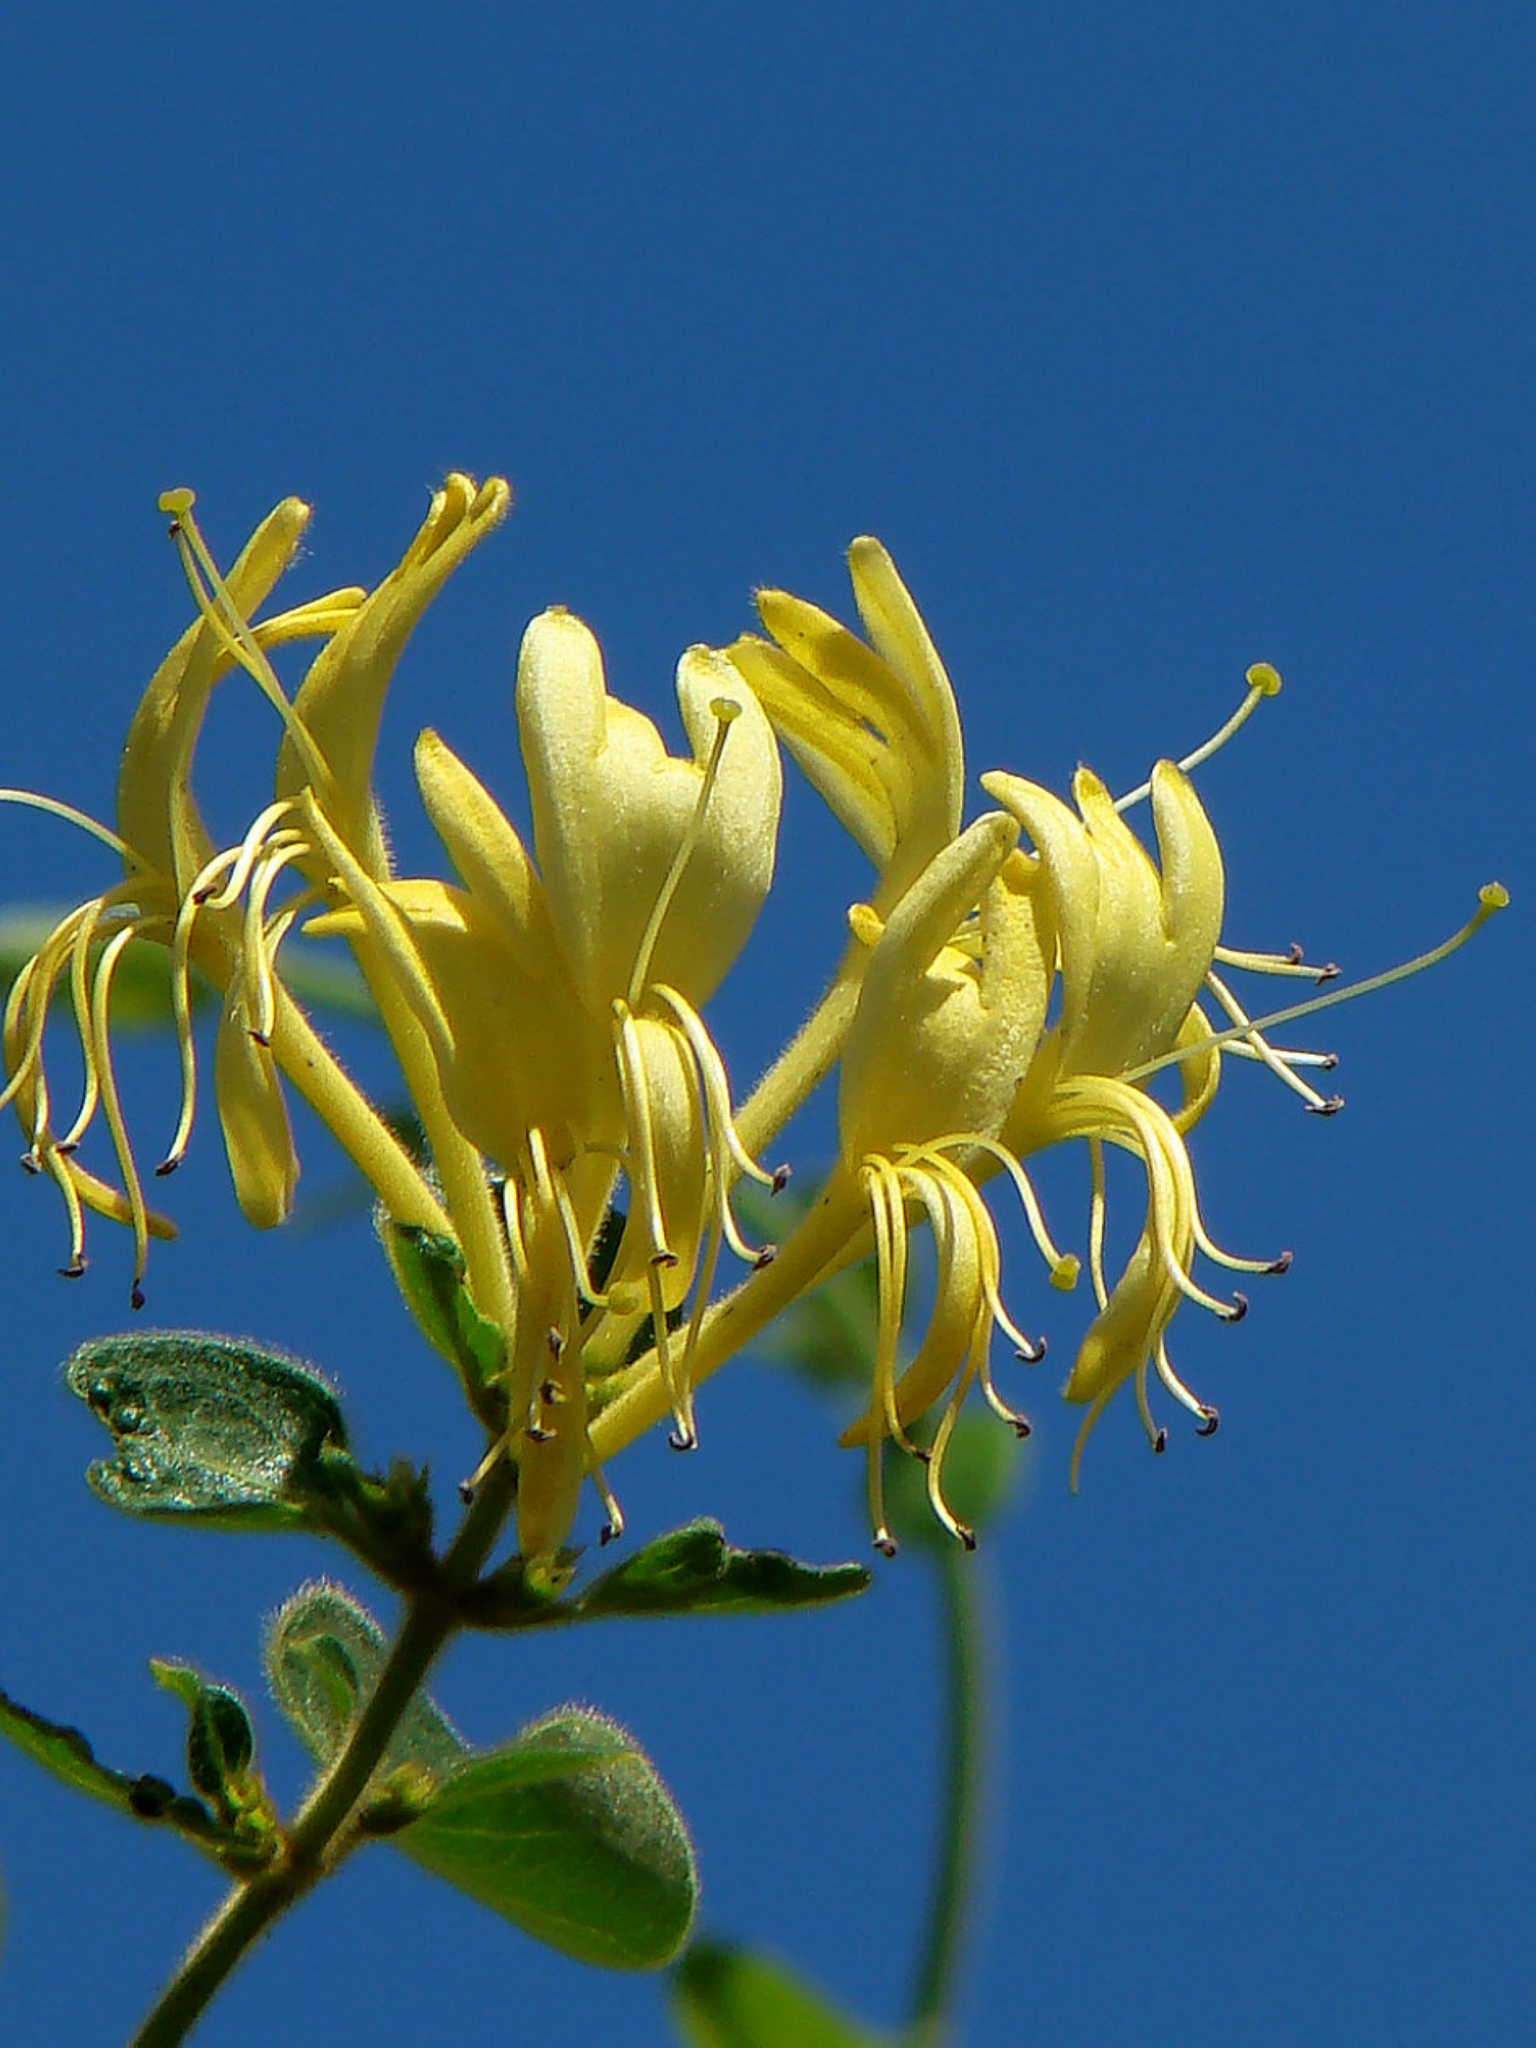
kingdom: Plantae
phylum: Tracheophyta
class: Magnoliopsida
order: Dipsacales
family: Caprifoliaceae
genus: Lonicera
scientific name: Lonicera japonica
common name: Japanese honeysuckle
